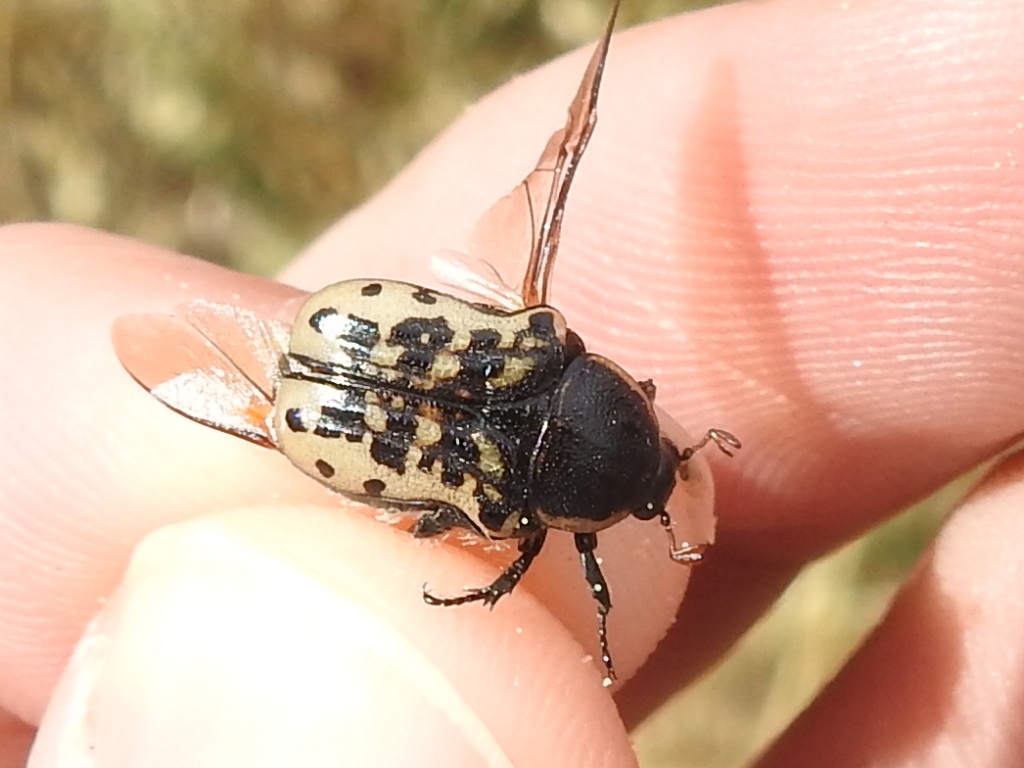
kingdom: Animalia
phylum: Arthropoda
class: Insecta
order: Coleoptera
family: Scarabaeidae
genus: Euphoria
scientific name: Euphoria kernii
